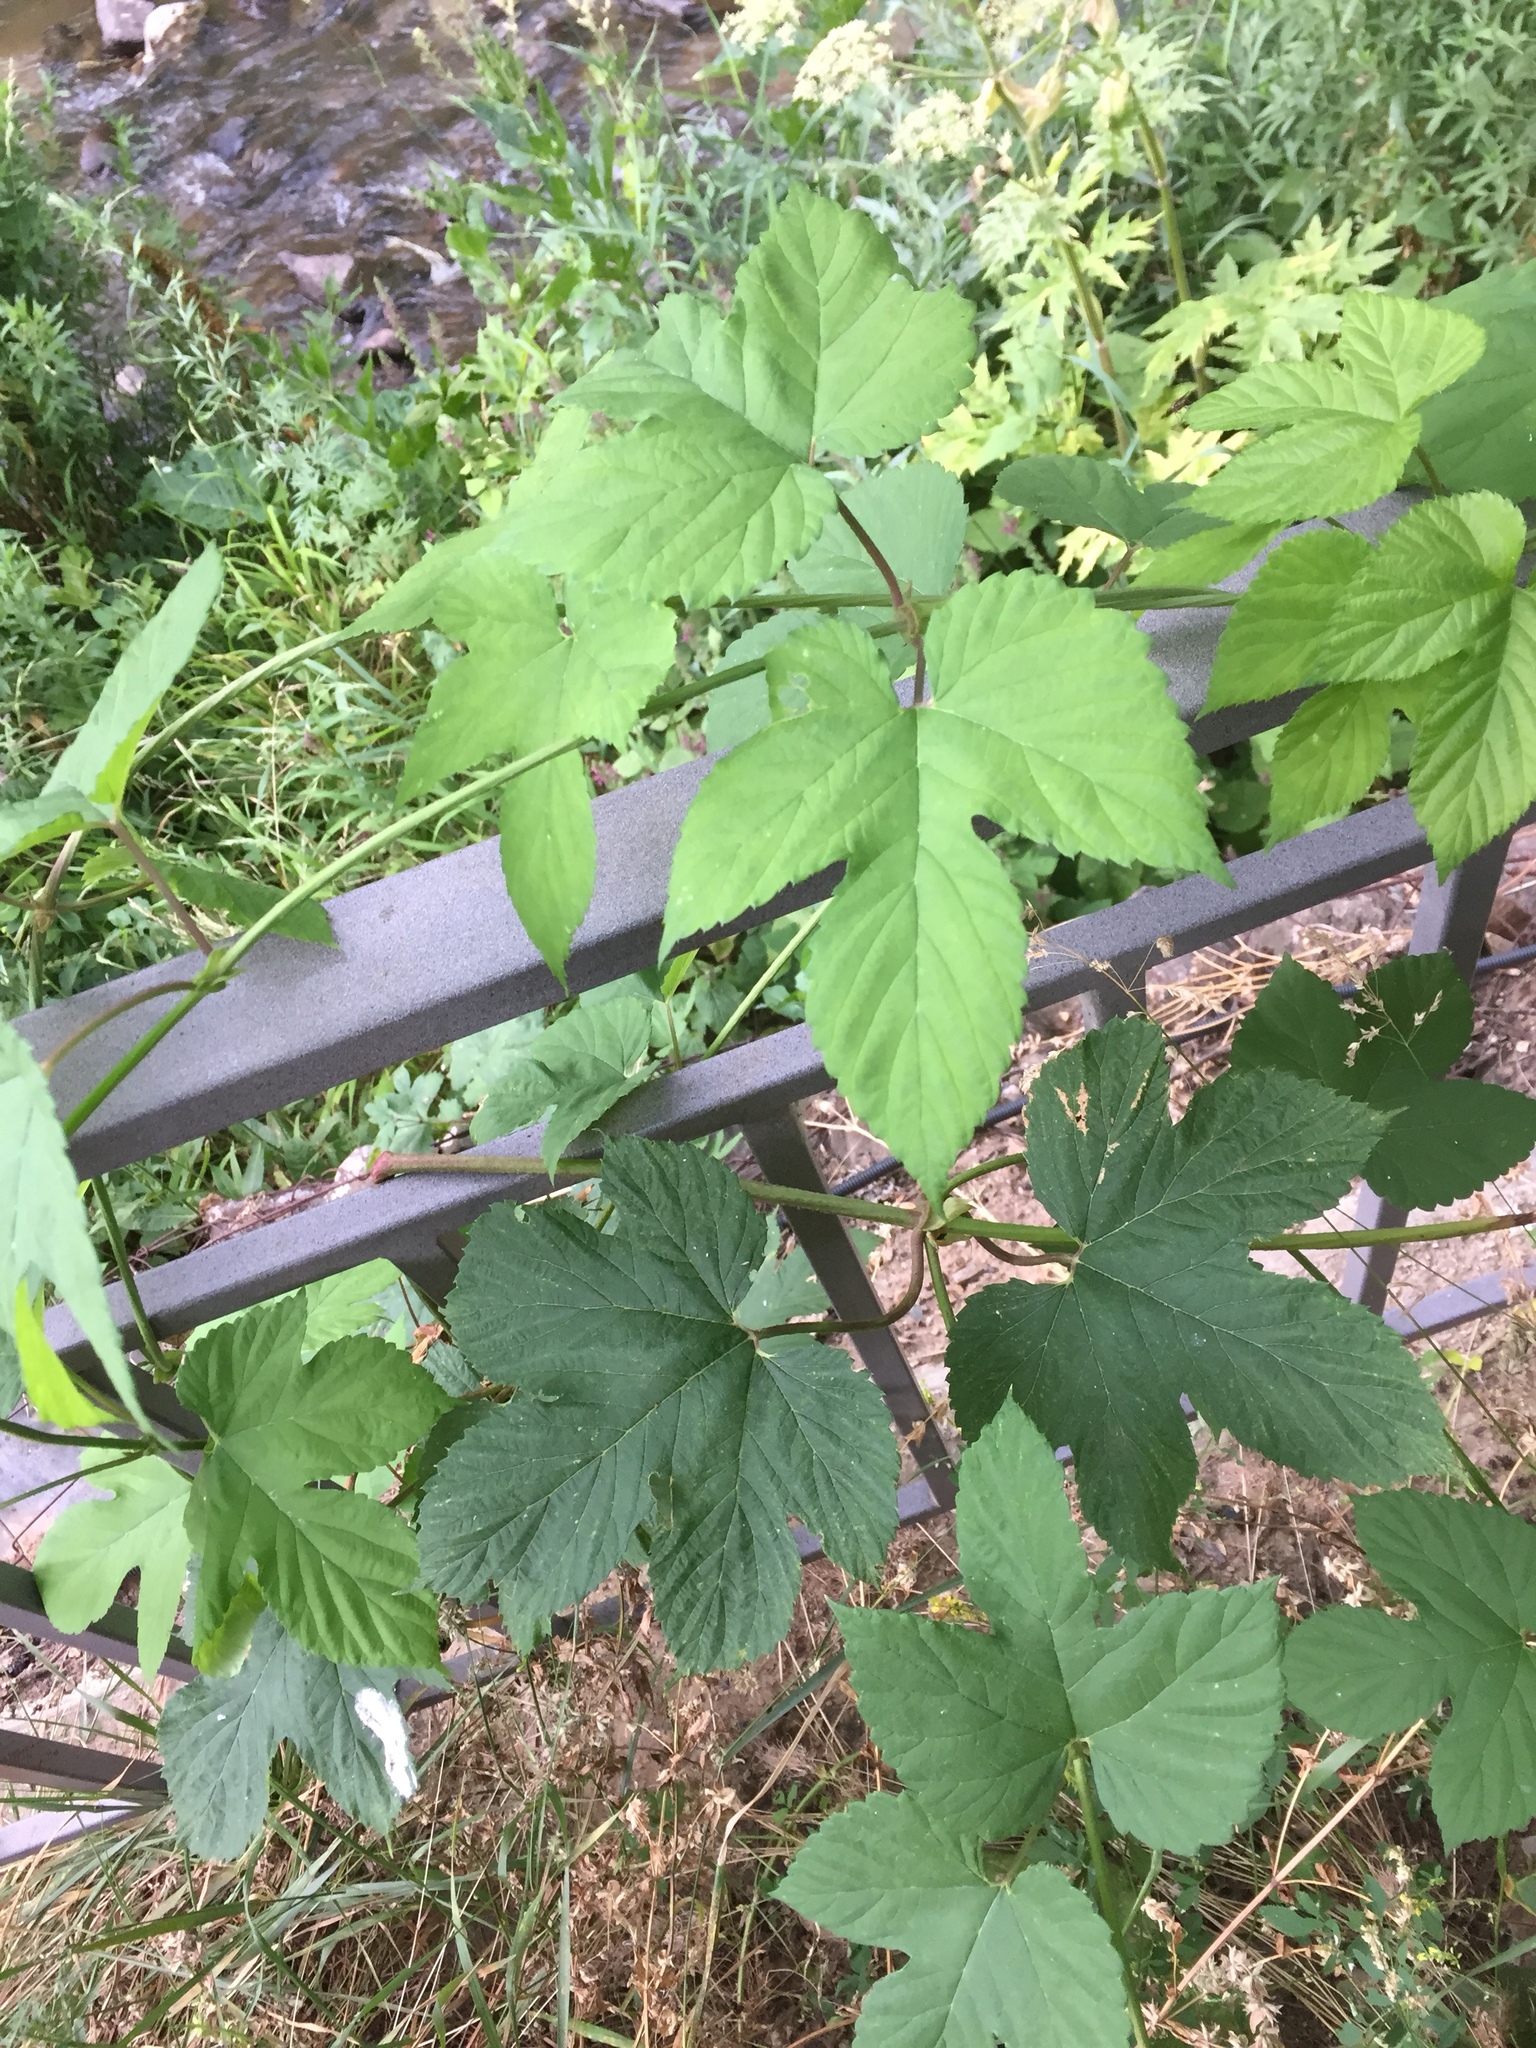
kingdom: Plantae
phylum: Tracheophyta
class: Magnoliopsida
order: Rosales
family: Cannabaceae
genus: Humulus
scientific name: Humulus lupulus
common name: Hop
